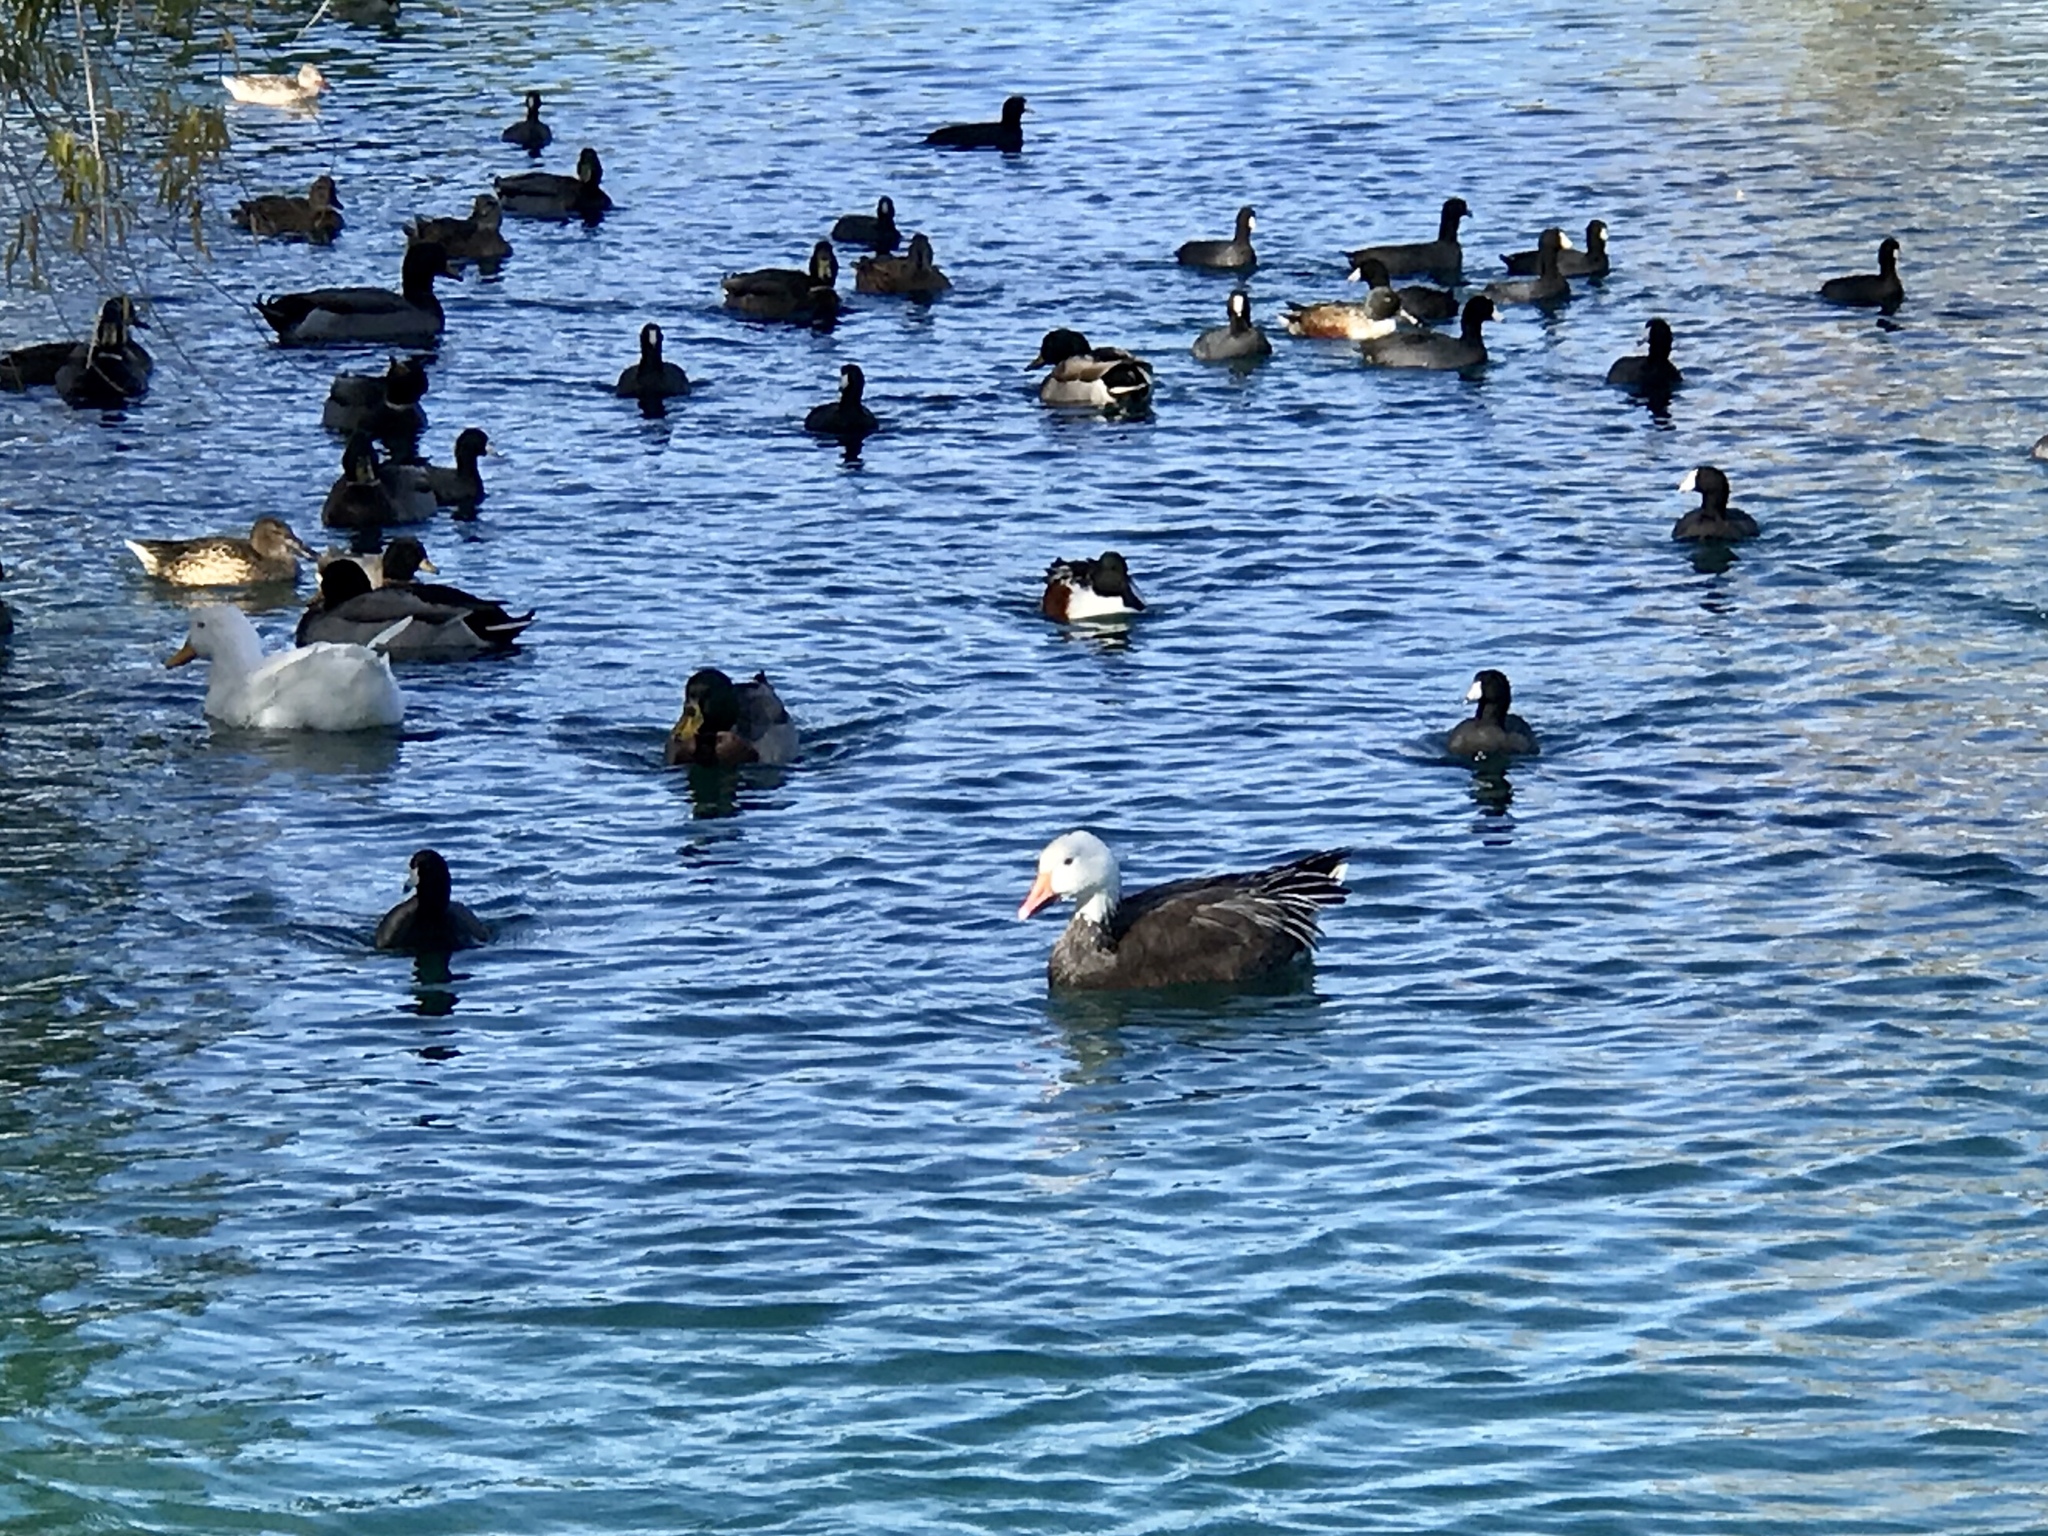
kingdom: Animalia
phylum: Chordata
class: Aves
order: Anseriformes
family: Anatidae
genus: Anser
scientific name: Anser caerulescens
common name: Snow goose
